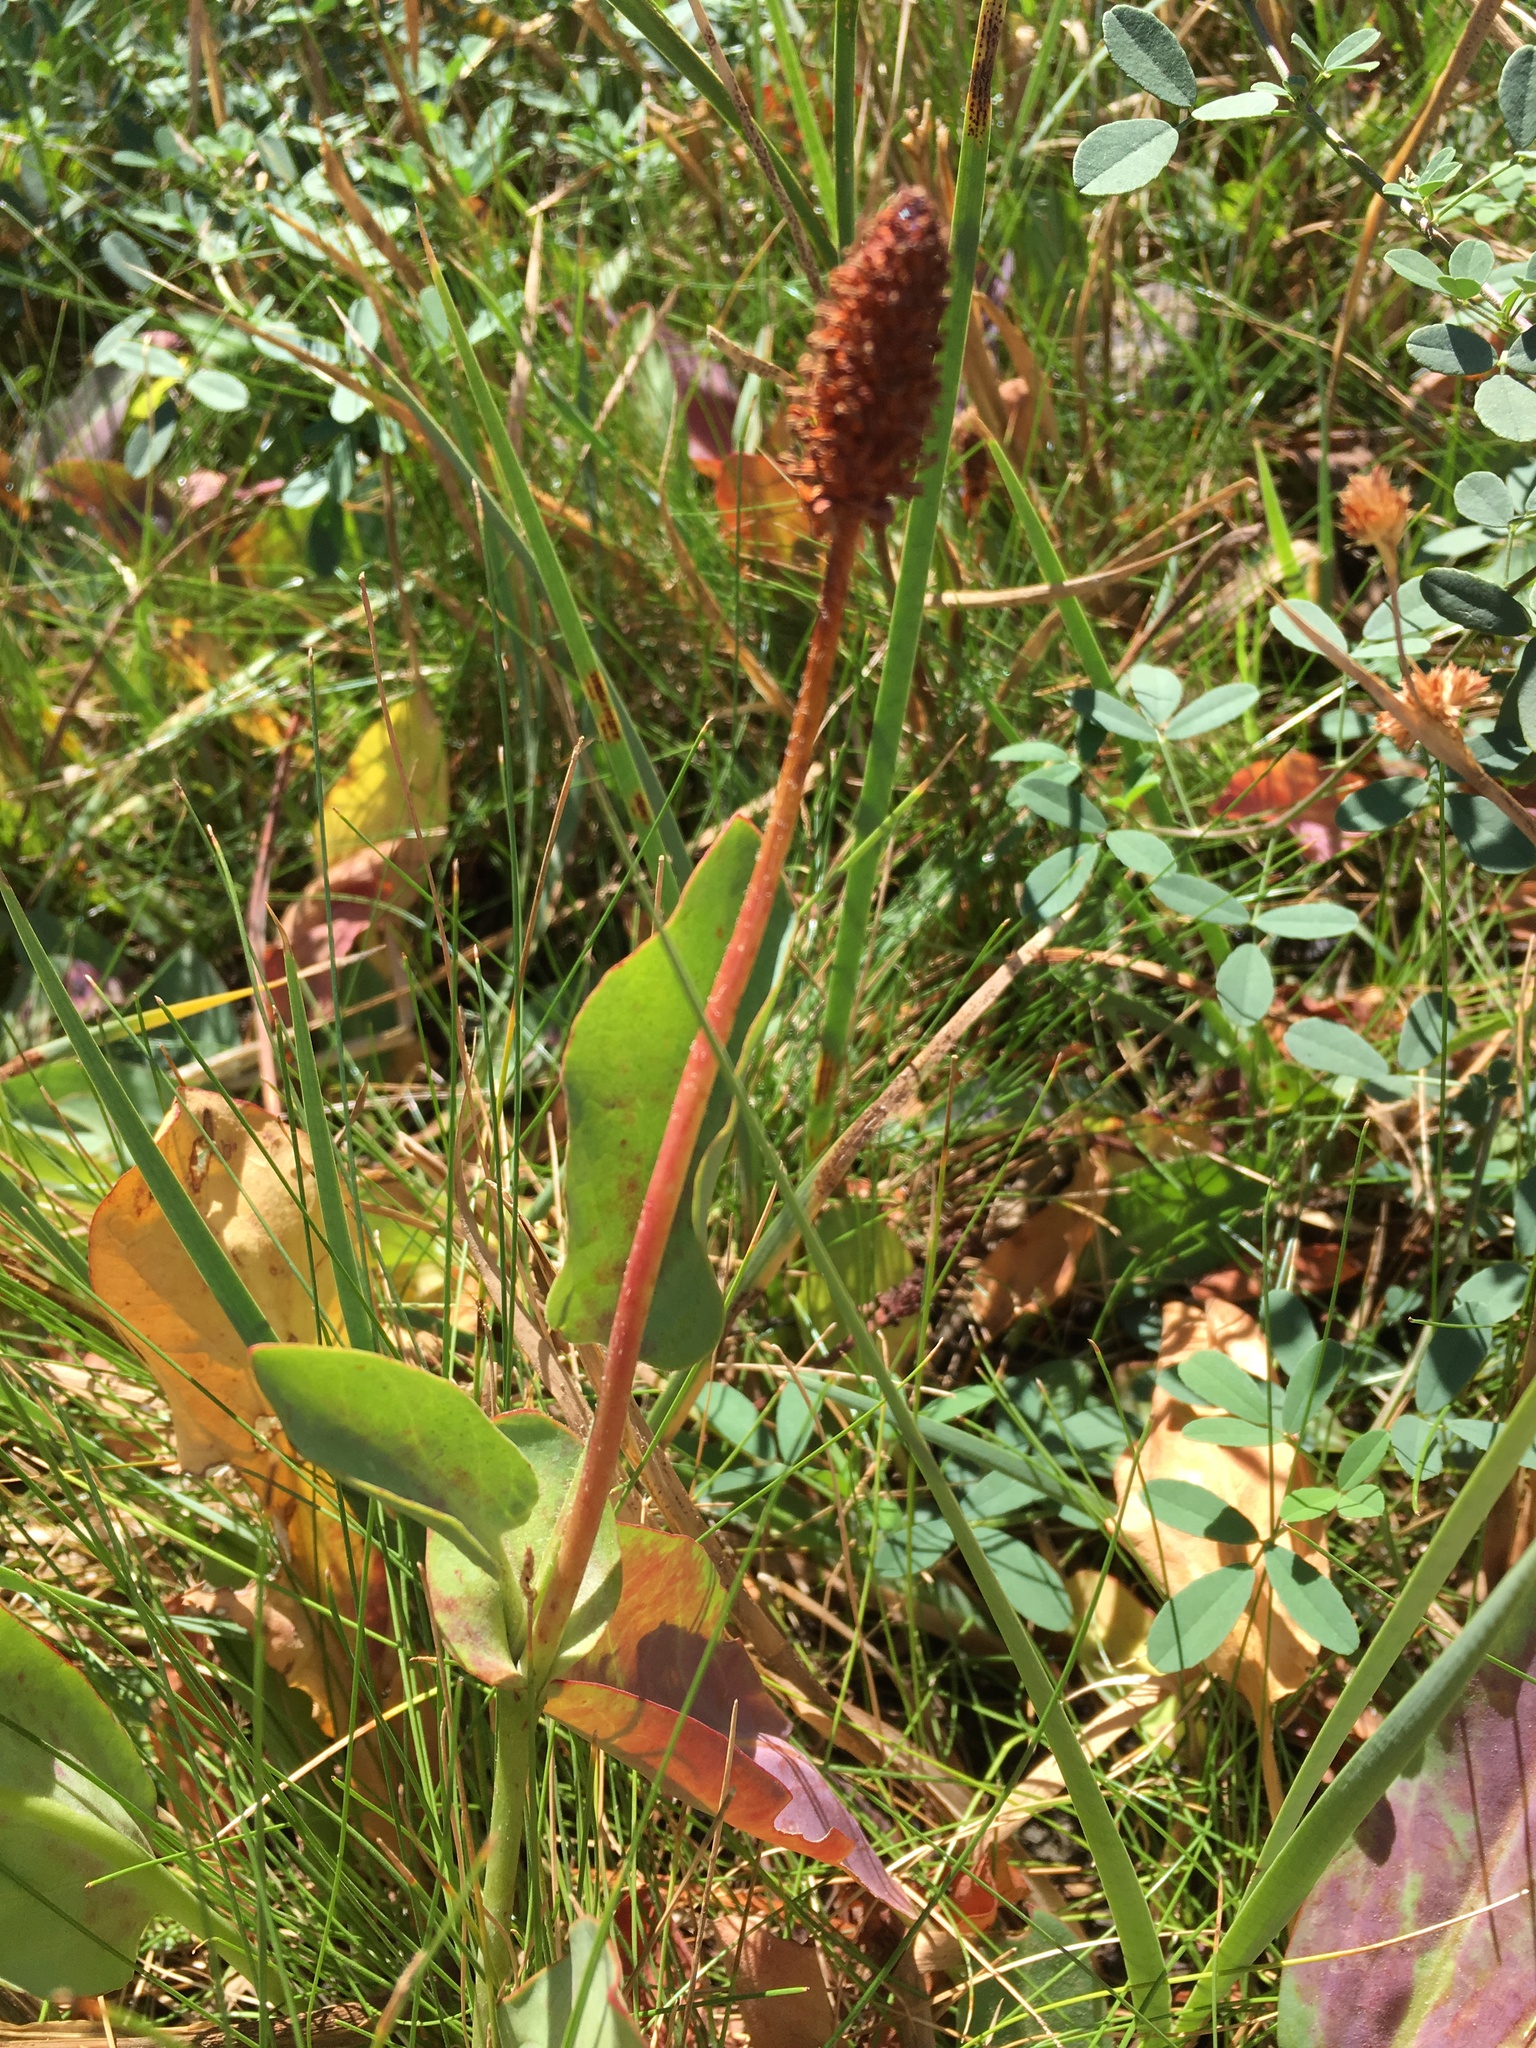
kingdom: Plantae
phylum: Tracheophyta
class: Magnoliopsida
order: Piperales
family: Saururaceae
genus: Anemopsis
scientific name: Anemopsis californica
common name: Apache-beads
